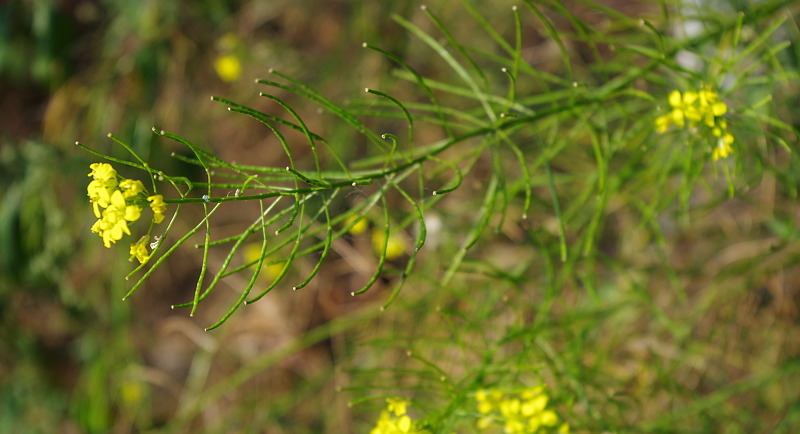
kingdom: Plantae
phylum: Tracheophyta
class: Magnoliopsida
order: Brassicales
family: Brassicaceae
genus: Erysimum
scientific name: Erysimum cheiranthoides
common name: Treacle mustard
